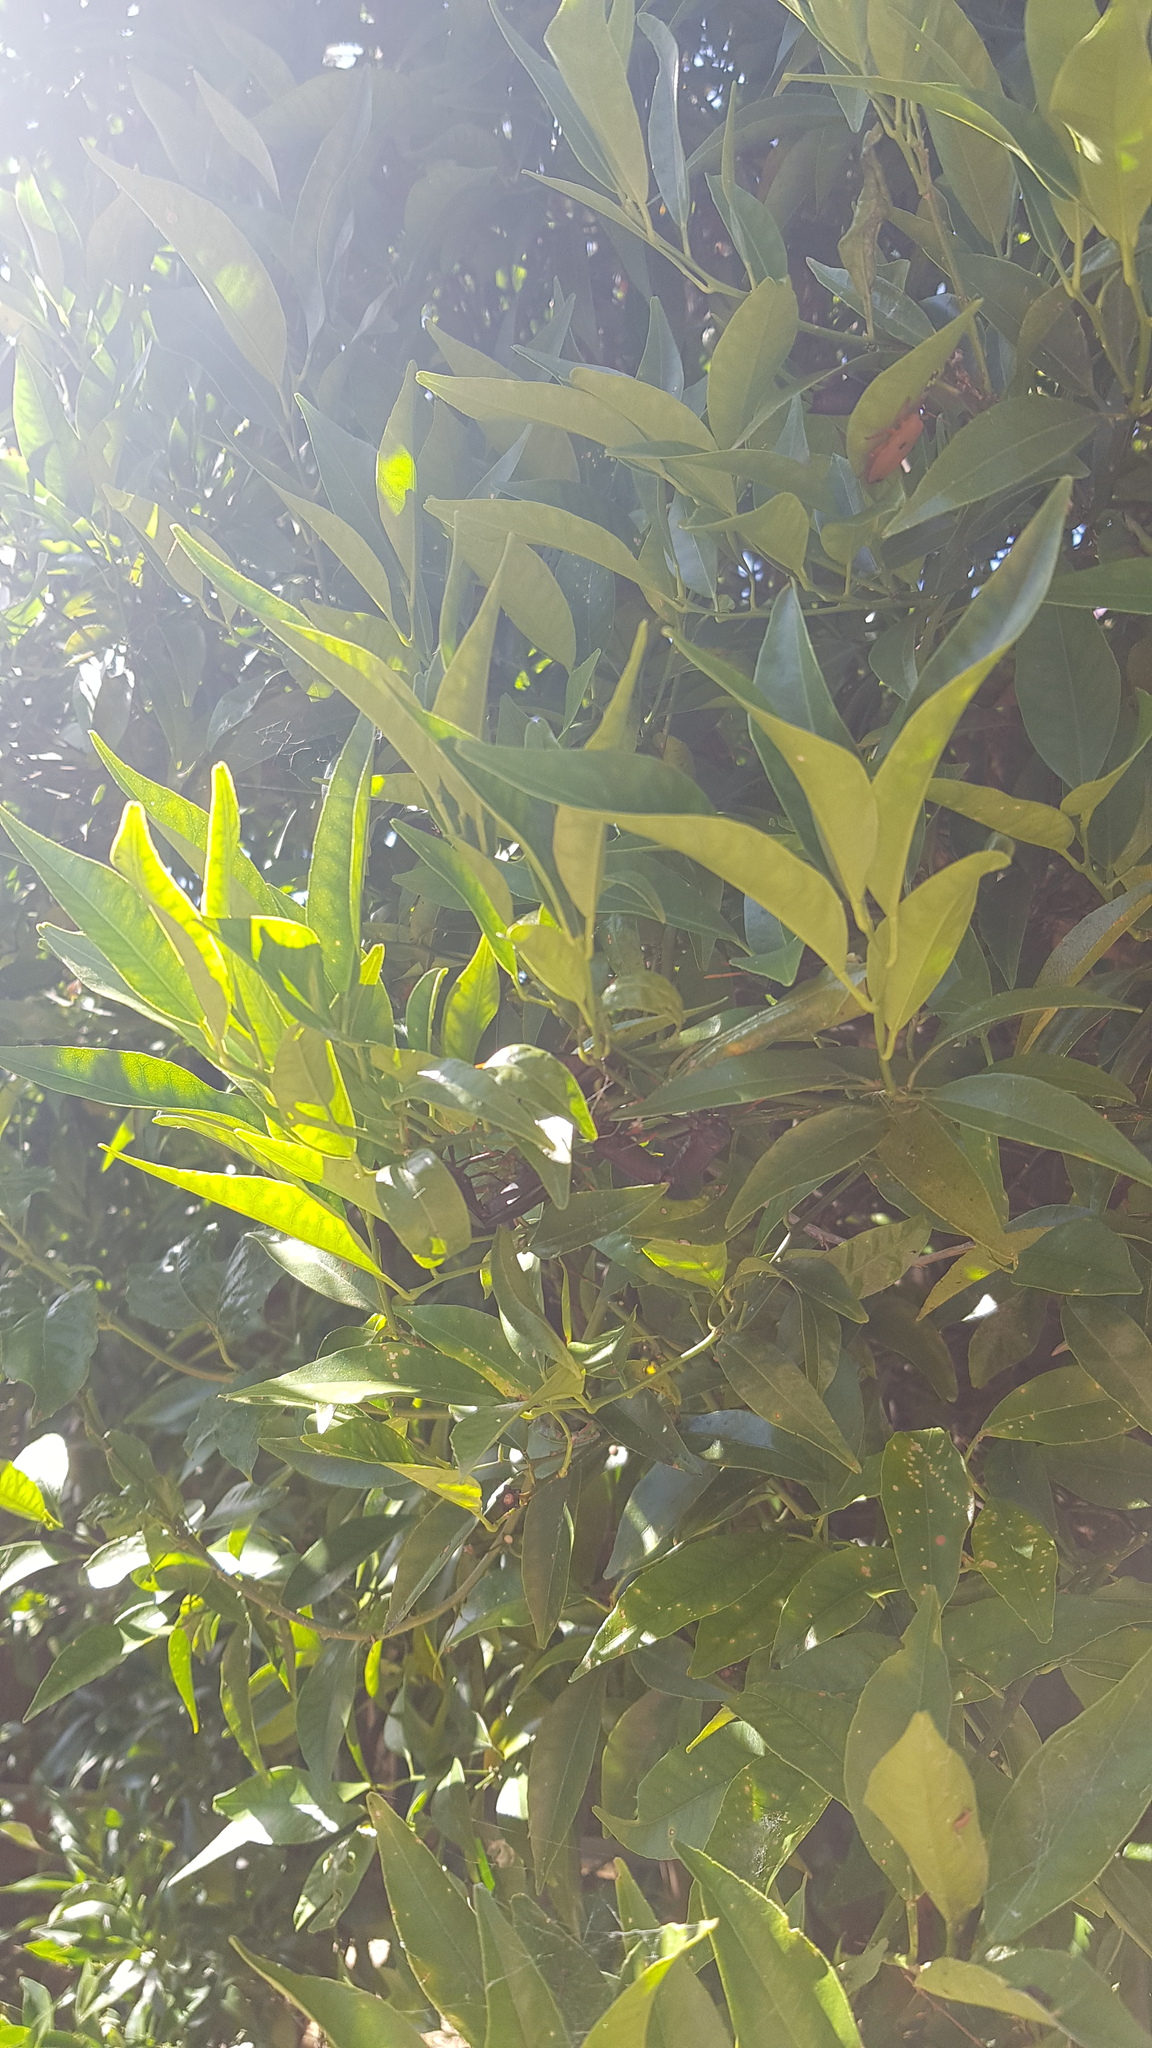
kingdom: Animalia
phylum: Arthropoda
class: Insecta
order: Hemiptera
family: Tessaratomidae
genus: Musgraveia
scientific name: Musgraveia sulciventris
